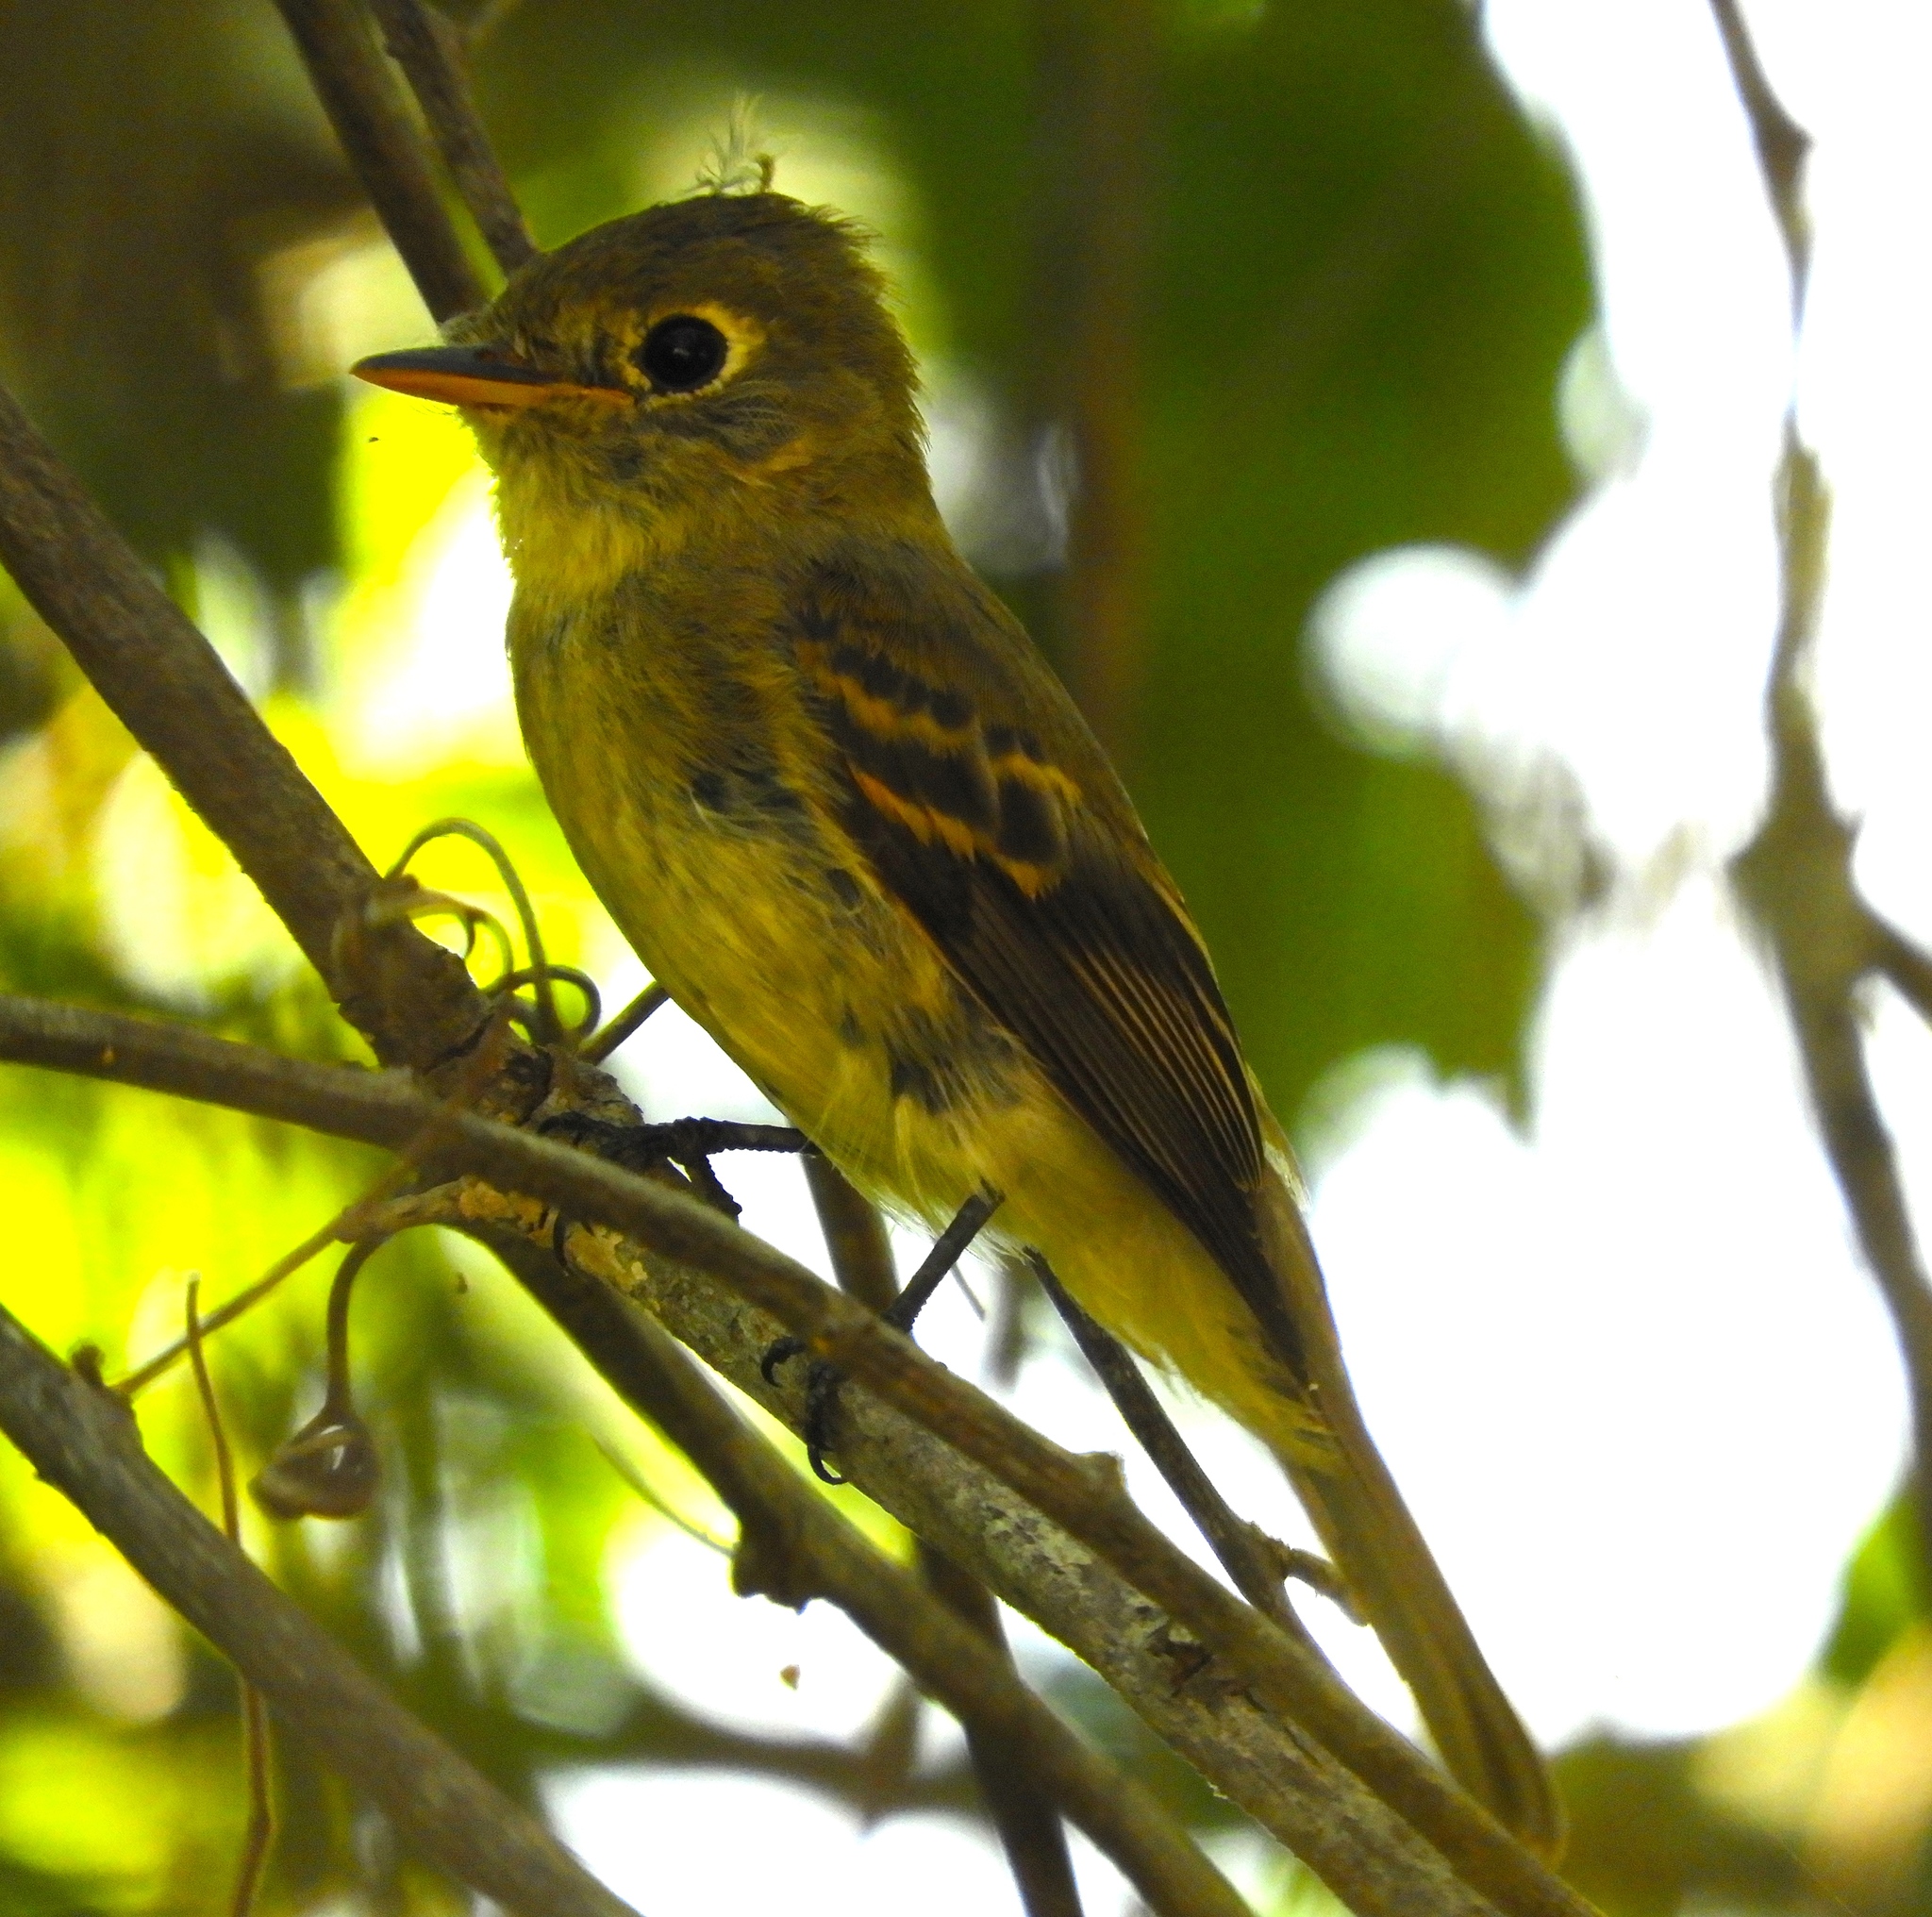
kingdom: Animalia
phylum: Chordata
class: Aves
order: Passeriformes
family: Tyrannidae
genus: Empidonax
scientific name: Empidonax
